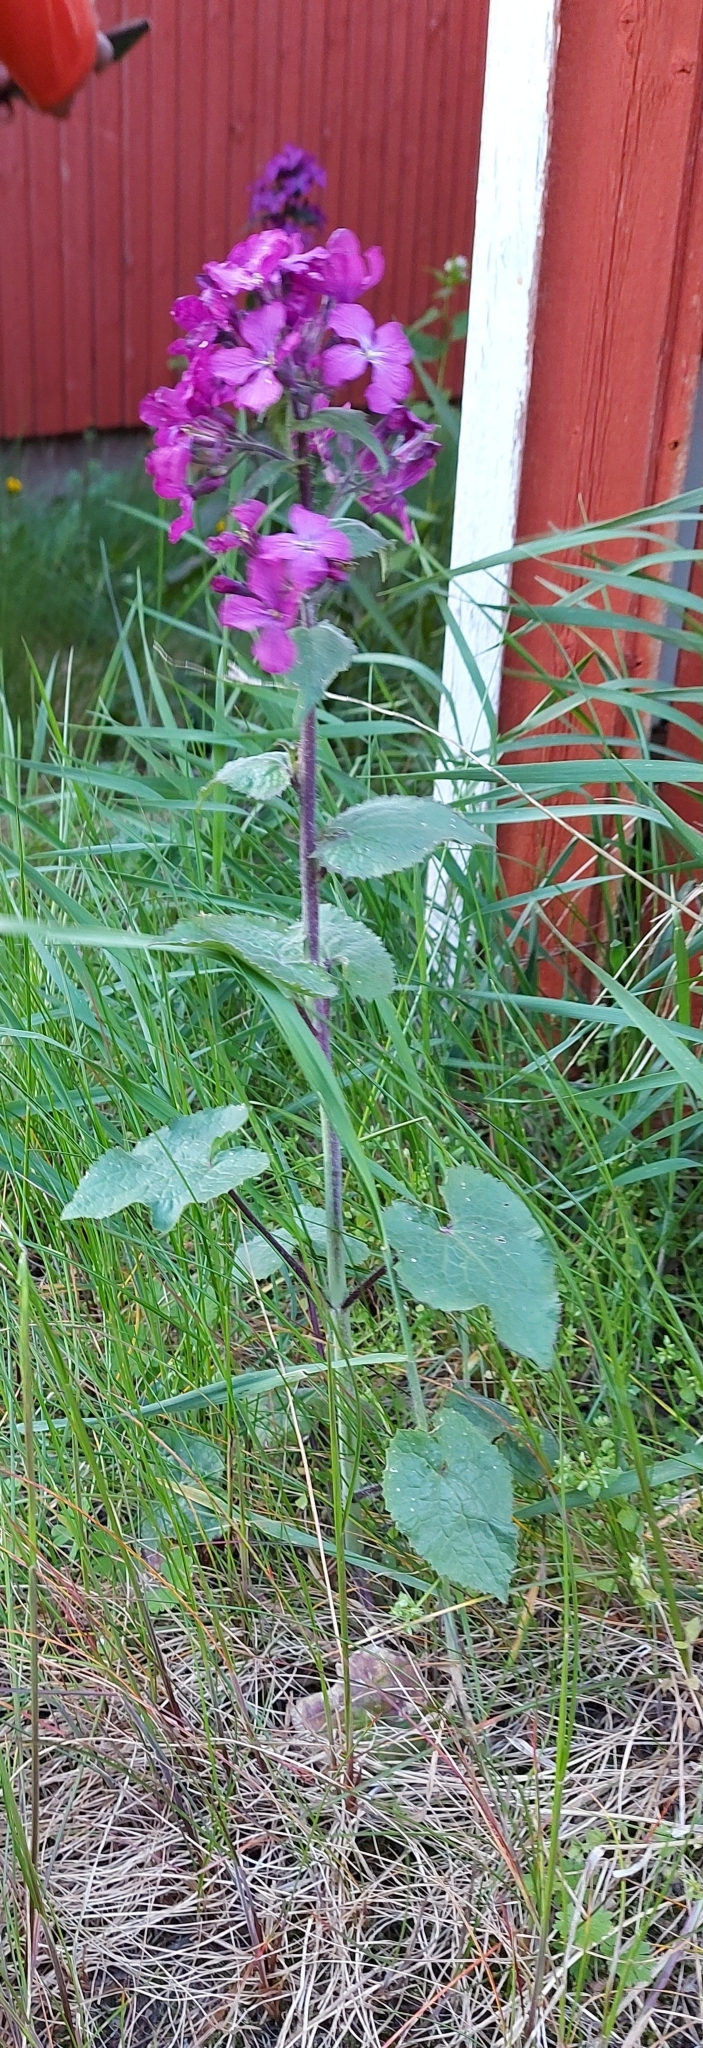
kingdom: Plantae
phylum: Tracheophyta
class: Magnoliopsida
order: Brassicales
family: Brassicaceae
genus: Lunaria
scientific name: Lunaria annua
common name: Honesty
